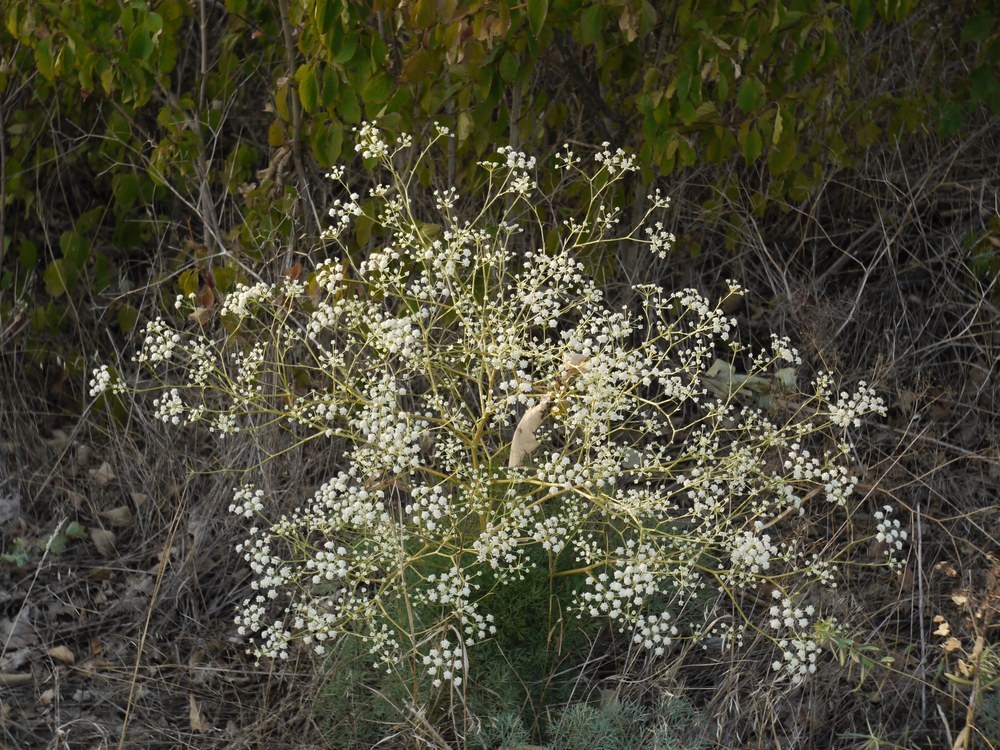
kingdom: Plantae
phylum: Tracheophyta
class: Magnoliopsida
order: Apiales
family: Apiaceae
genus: Seseli
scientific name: Seseli arenarium
